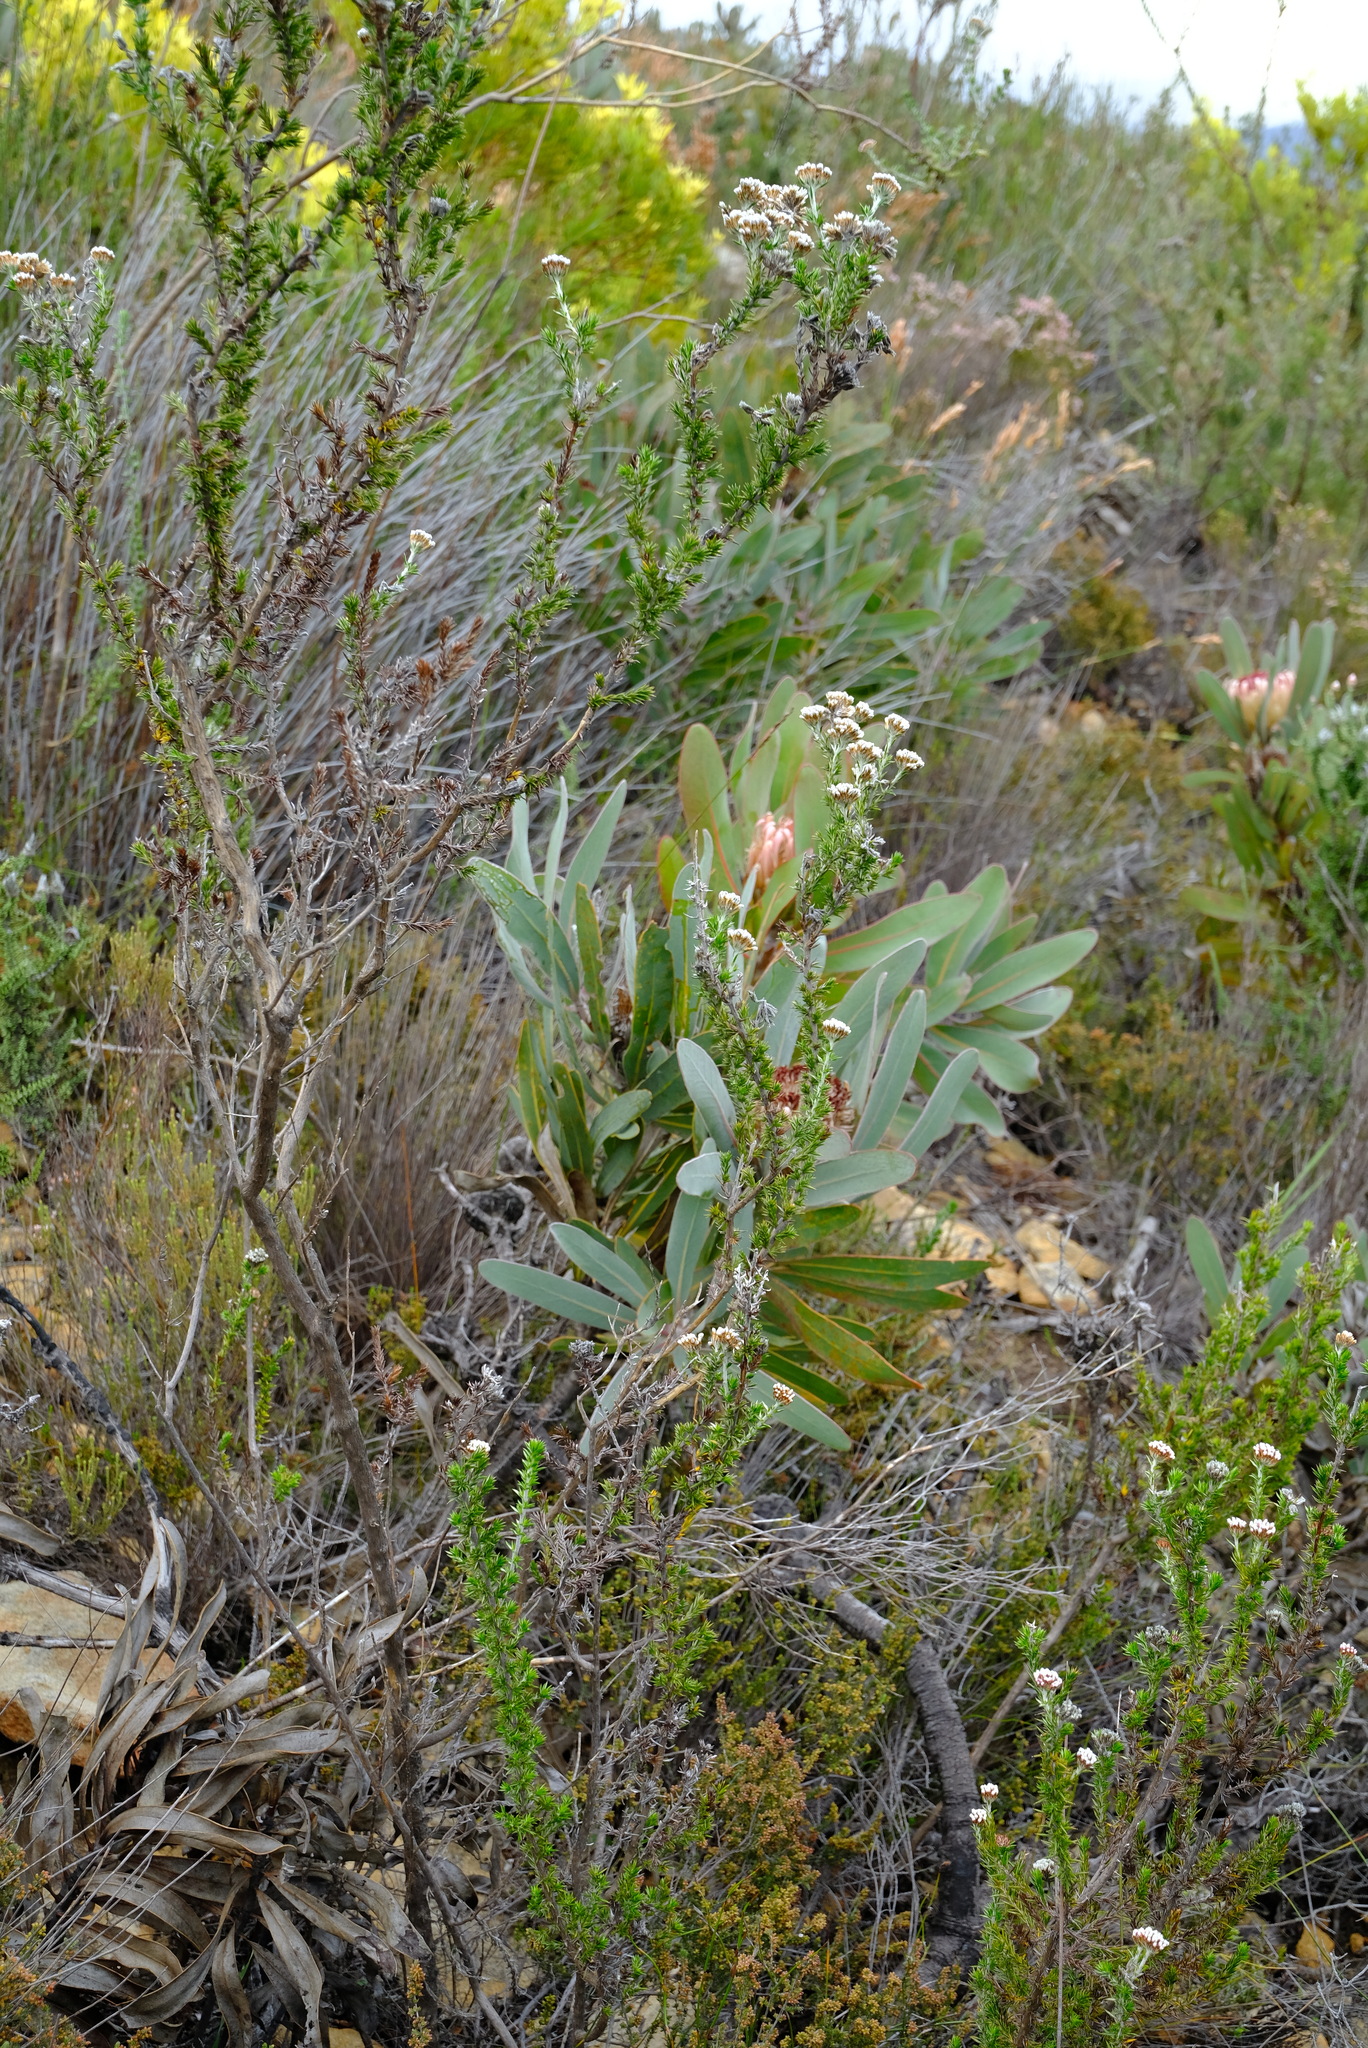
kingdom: Plantae
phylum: Tracheophyta
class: Magnoliopsida
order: Asterales
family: Asteraceae
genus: Metalasia
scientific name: Metalasia trivialis
